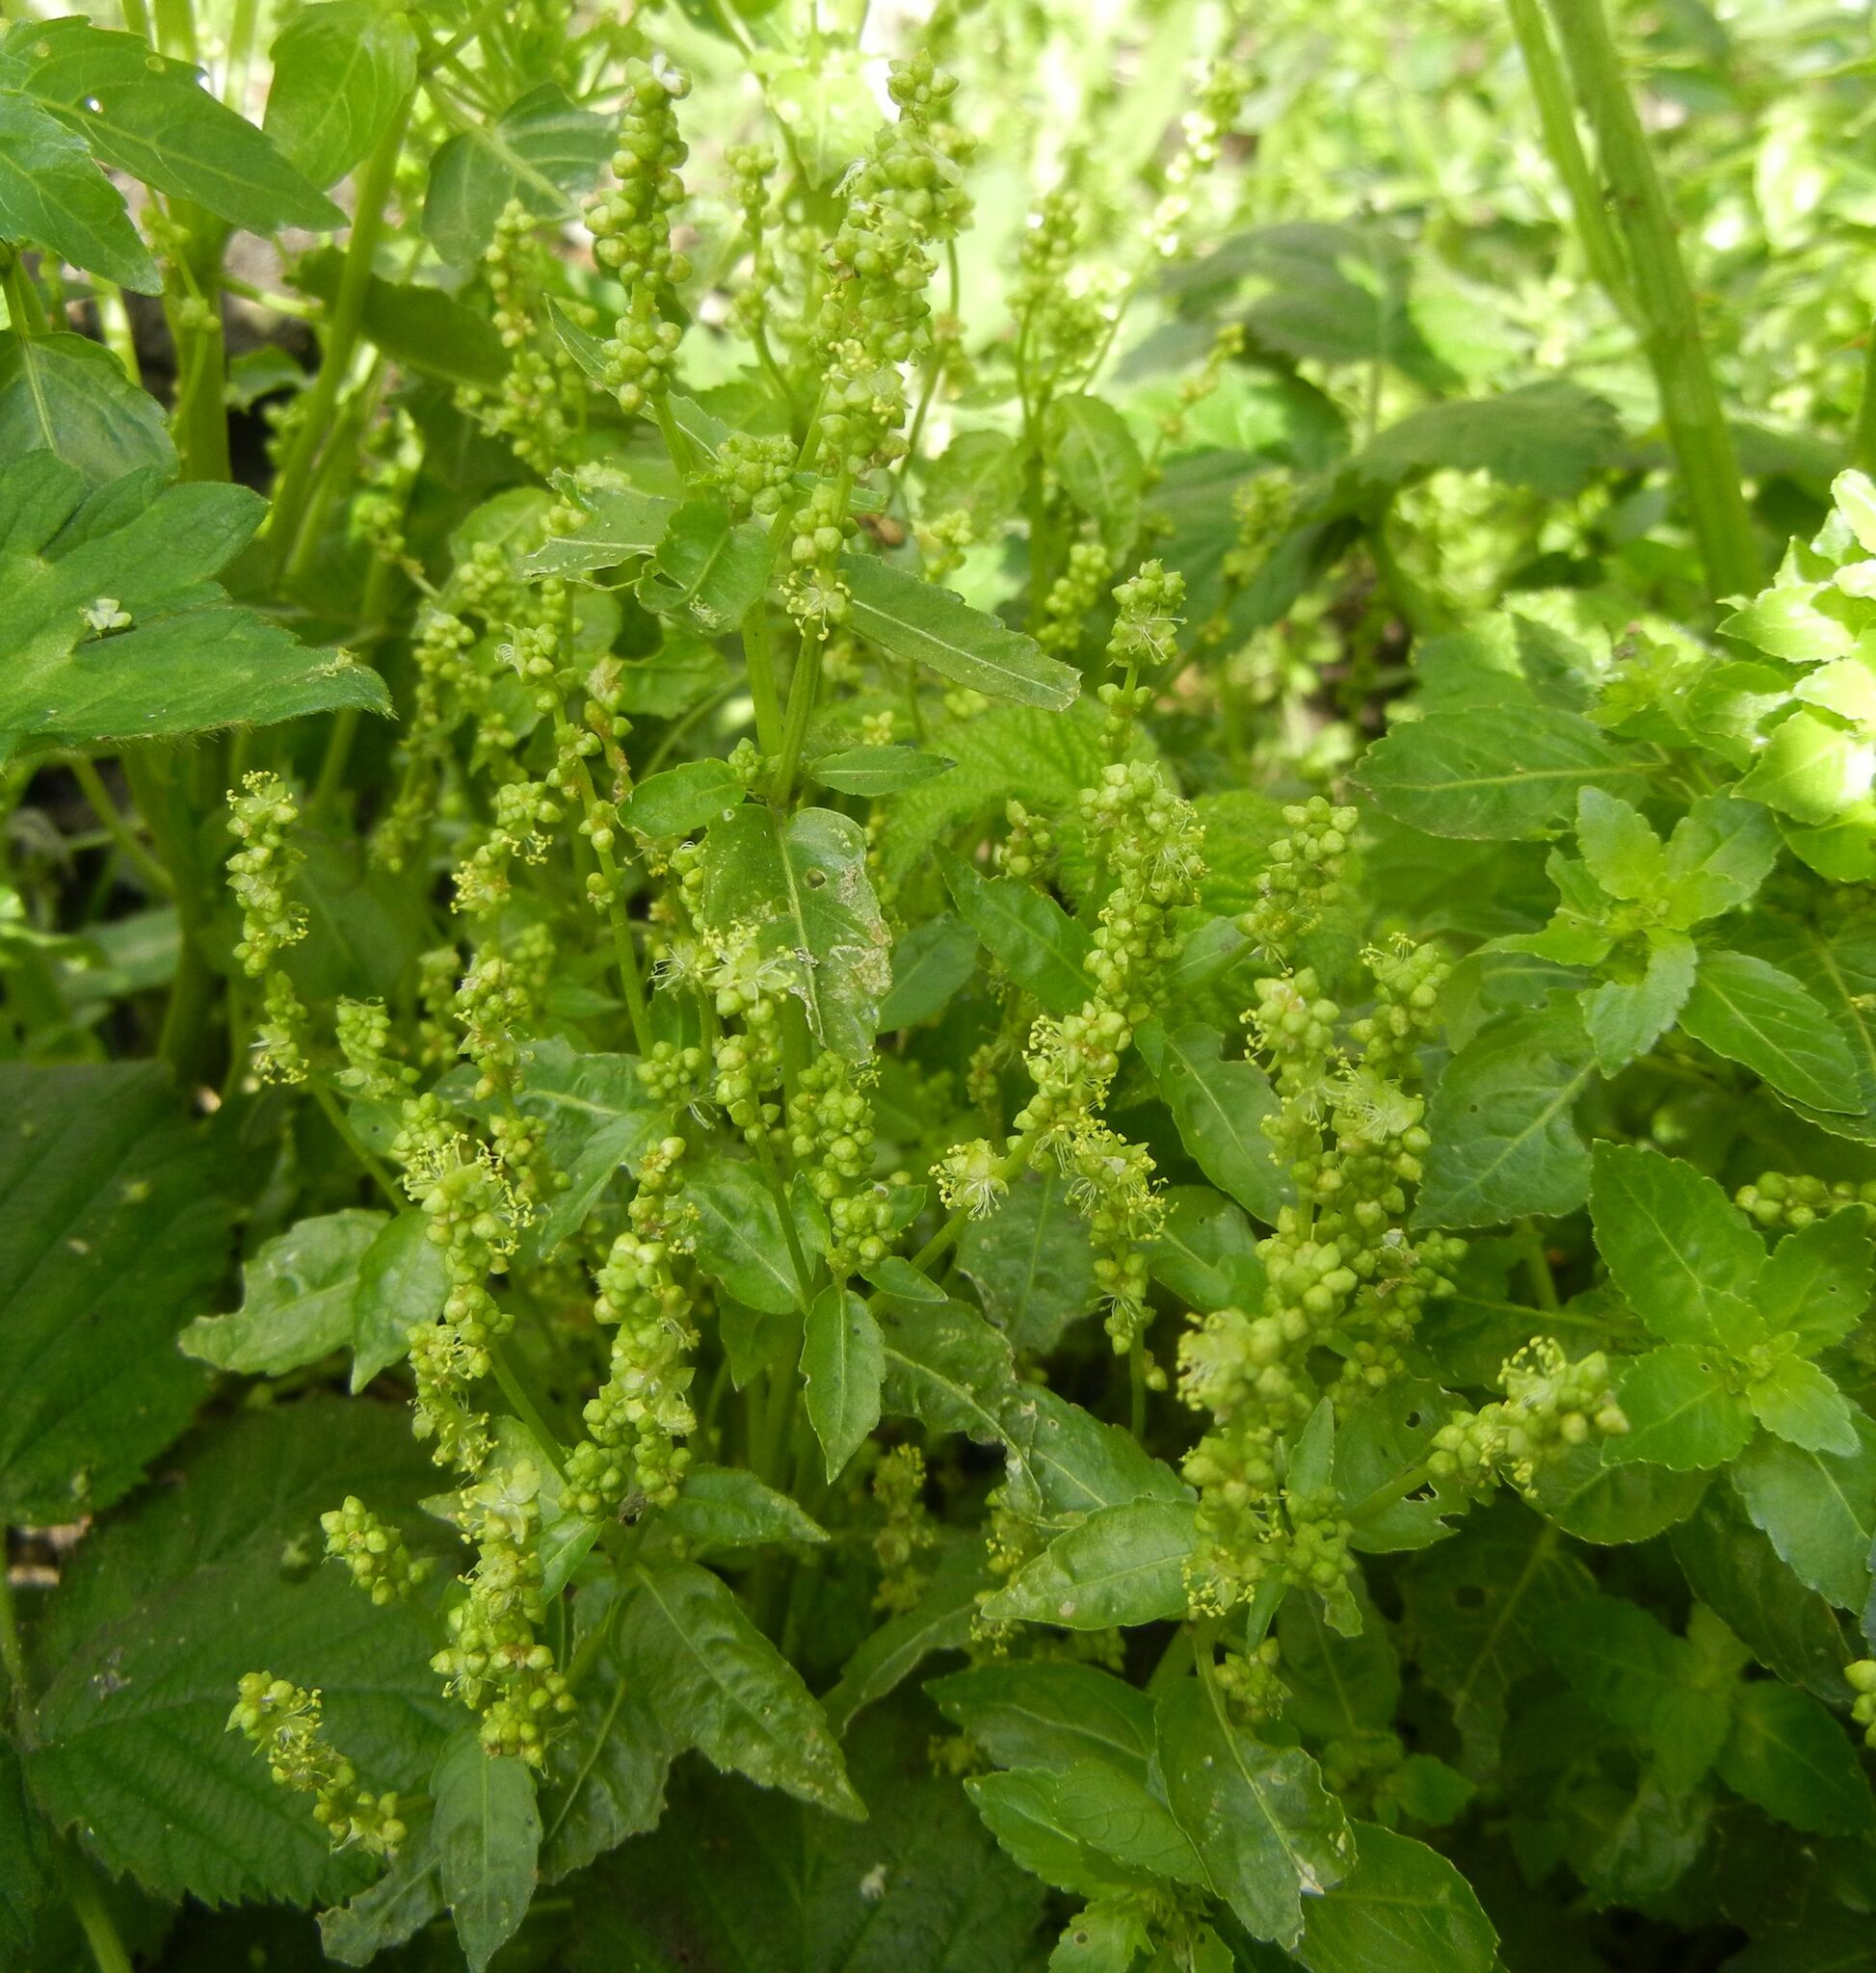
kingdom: Plantae
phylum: Tracheophyta
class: Magnoliopsida
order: Malpighiales
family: Euphorbiaceae
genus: Mercurialis
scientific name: Mercurialis annua
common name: Annual mercury
